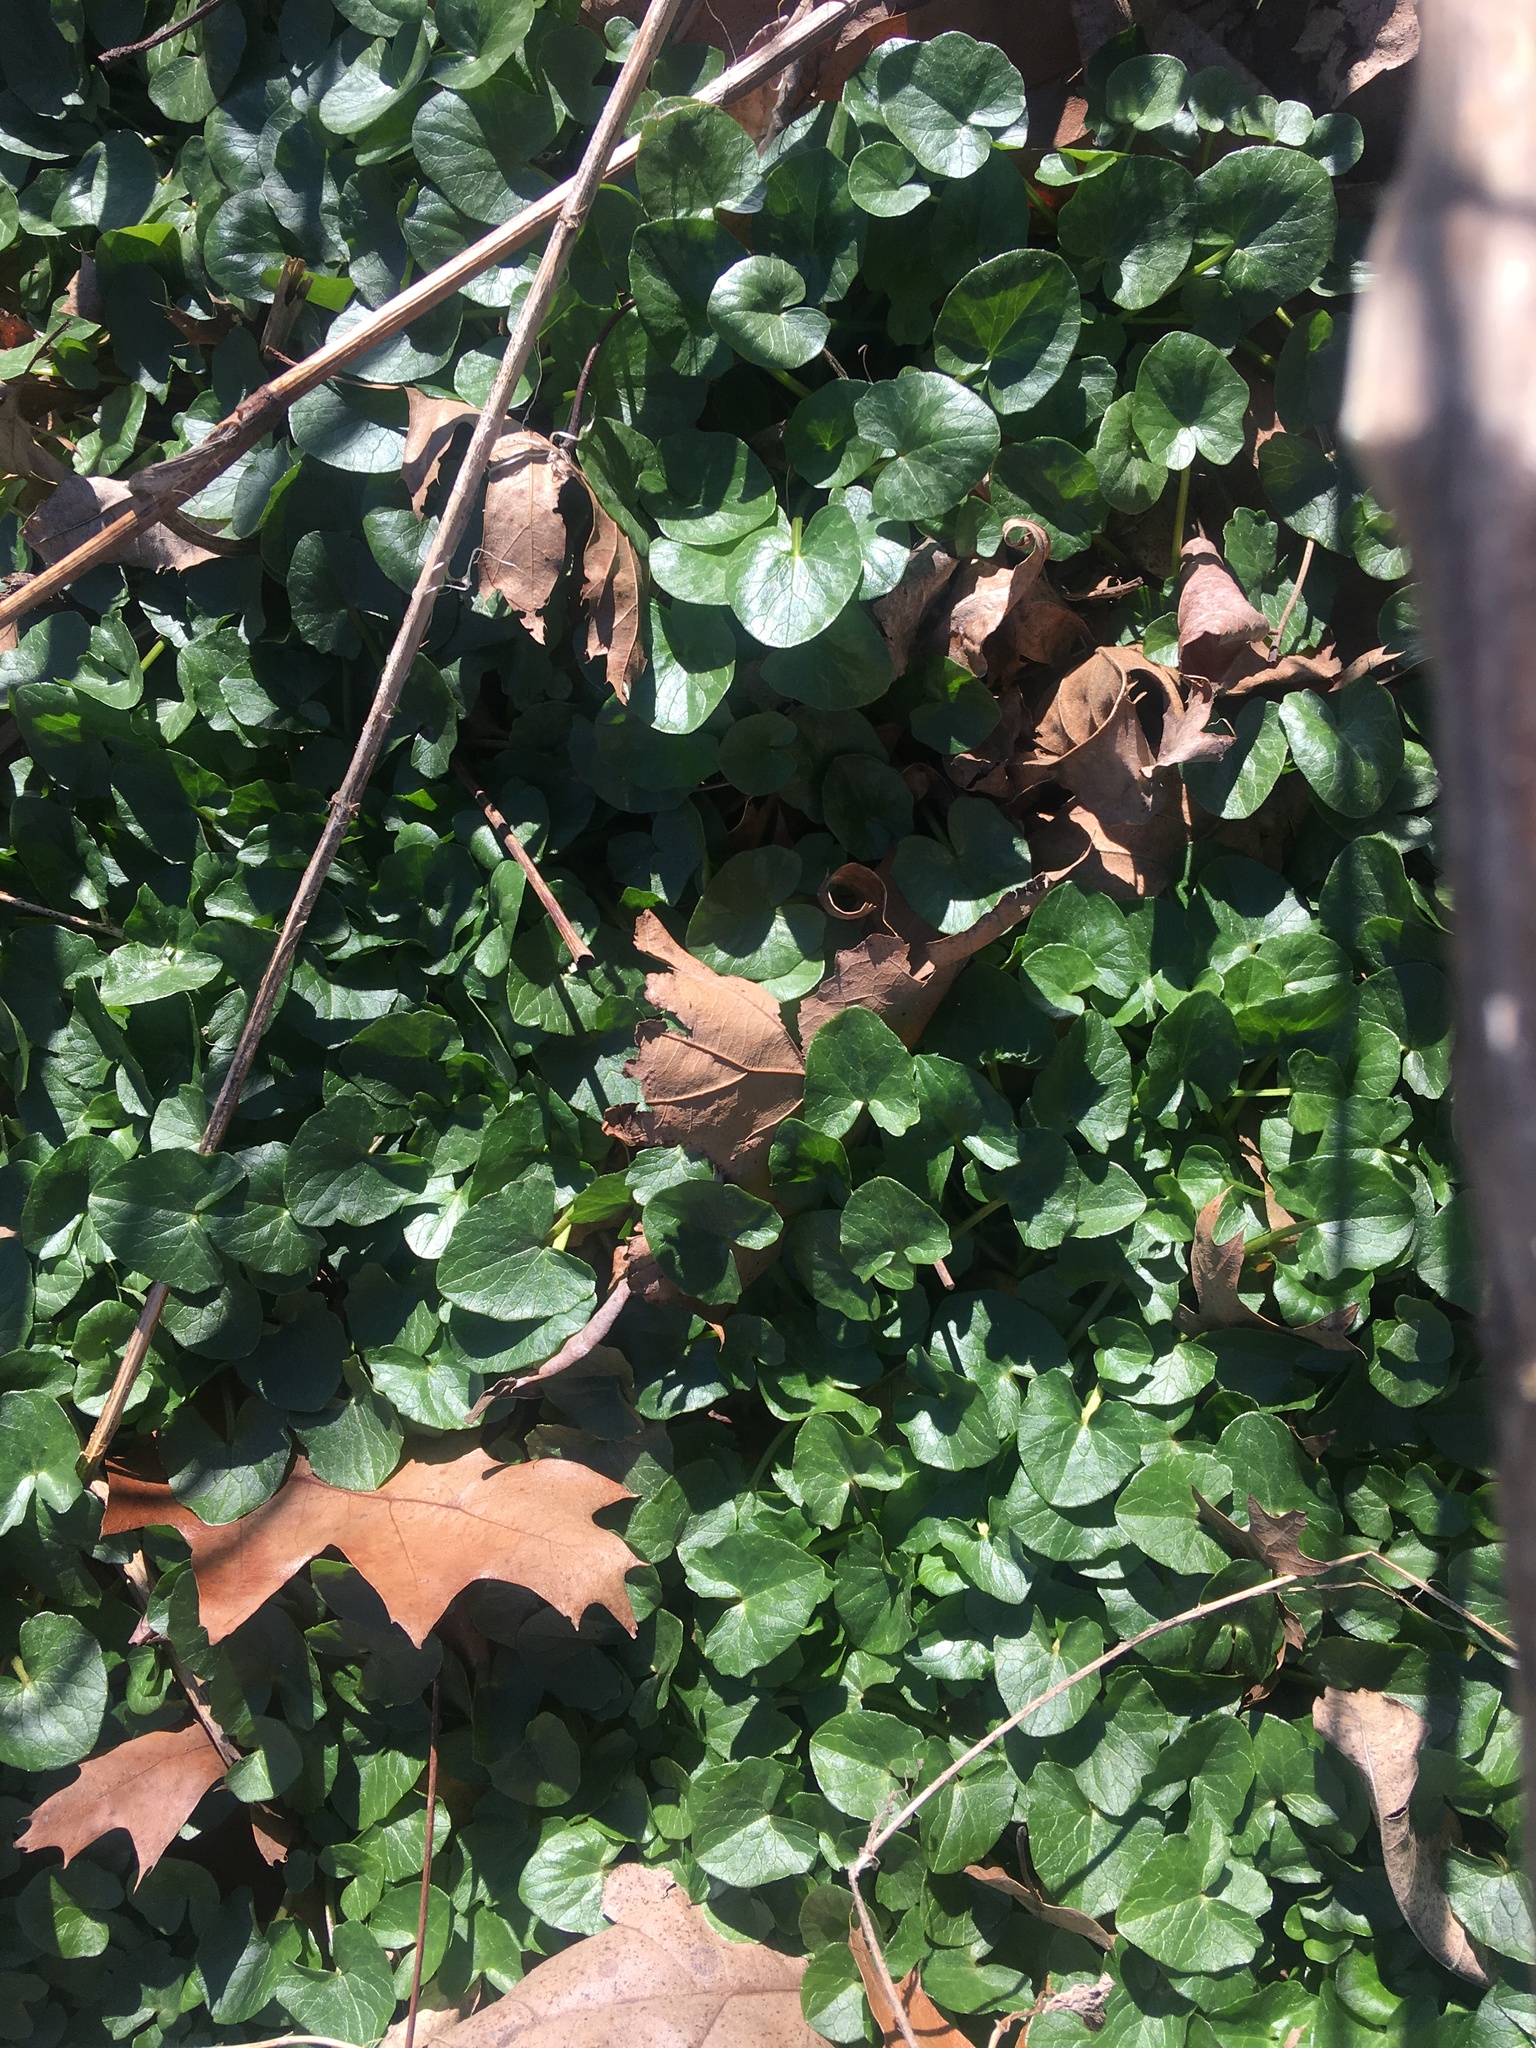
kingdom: Plantae
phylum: Tracheophyta
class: Magnoliopsida
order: Ranunculales
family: Ranunculaceae
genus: Ficaria
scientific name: Ficaria verna
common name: Lesser celandine
